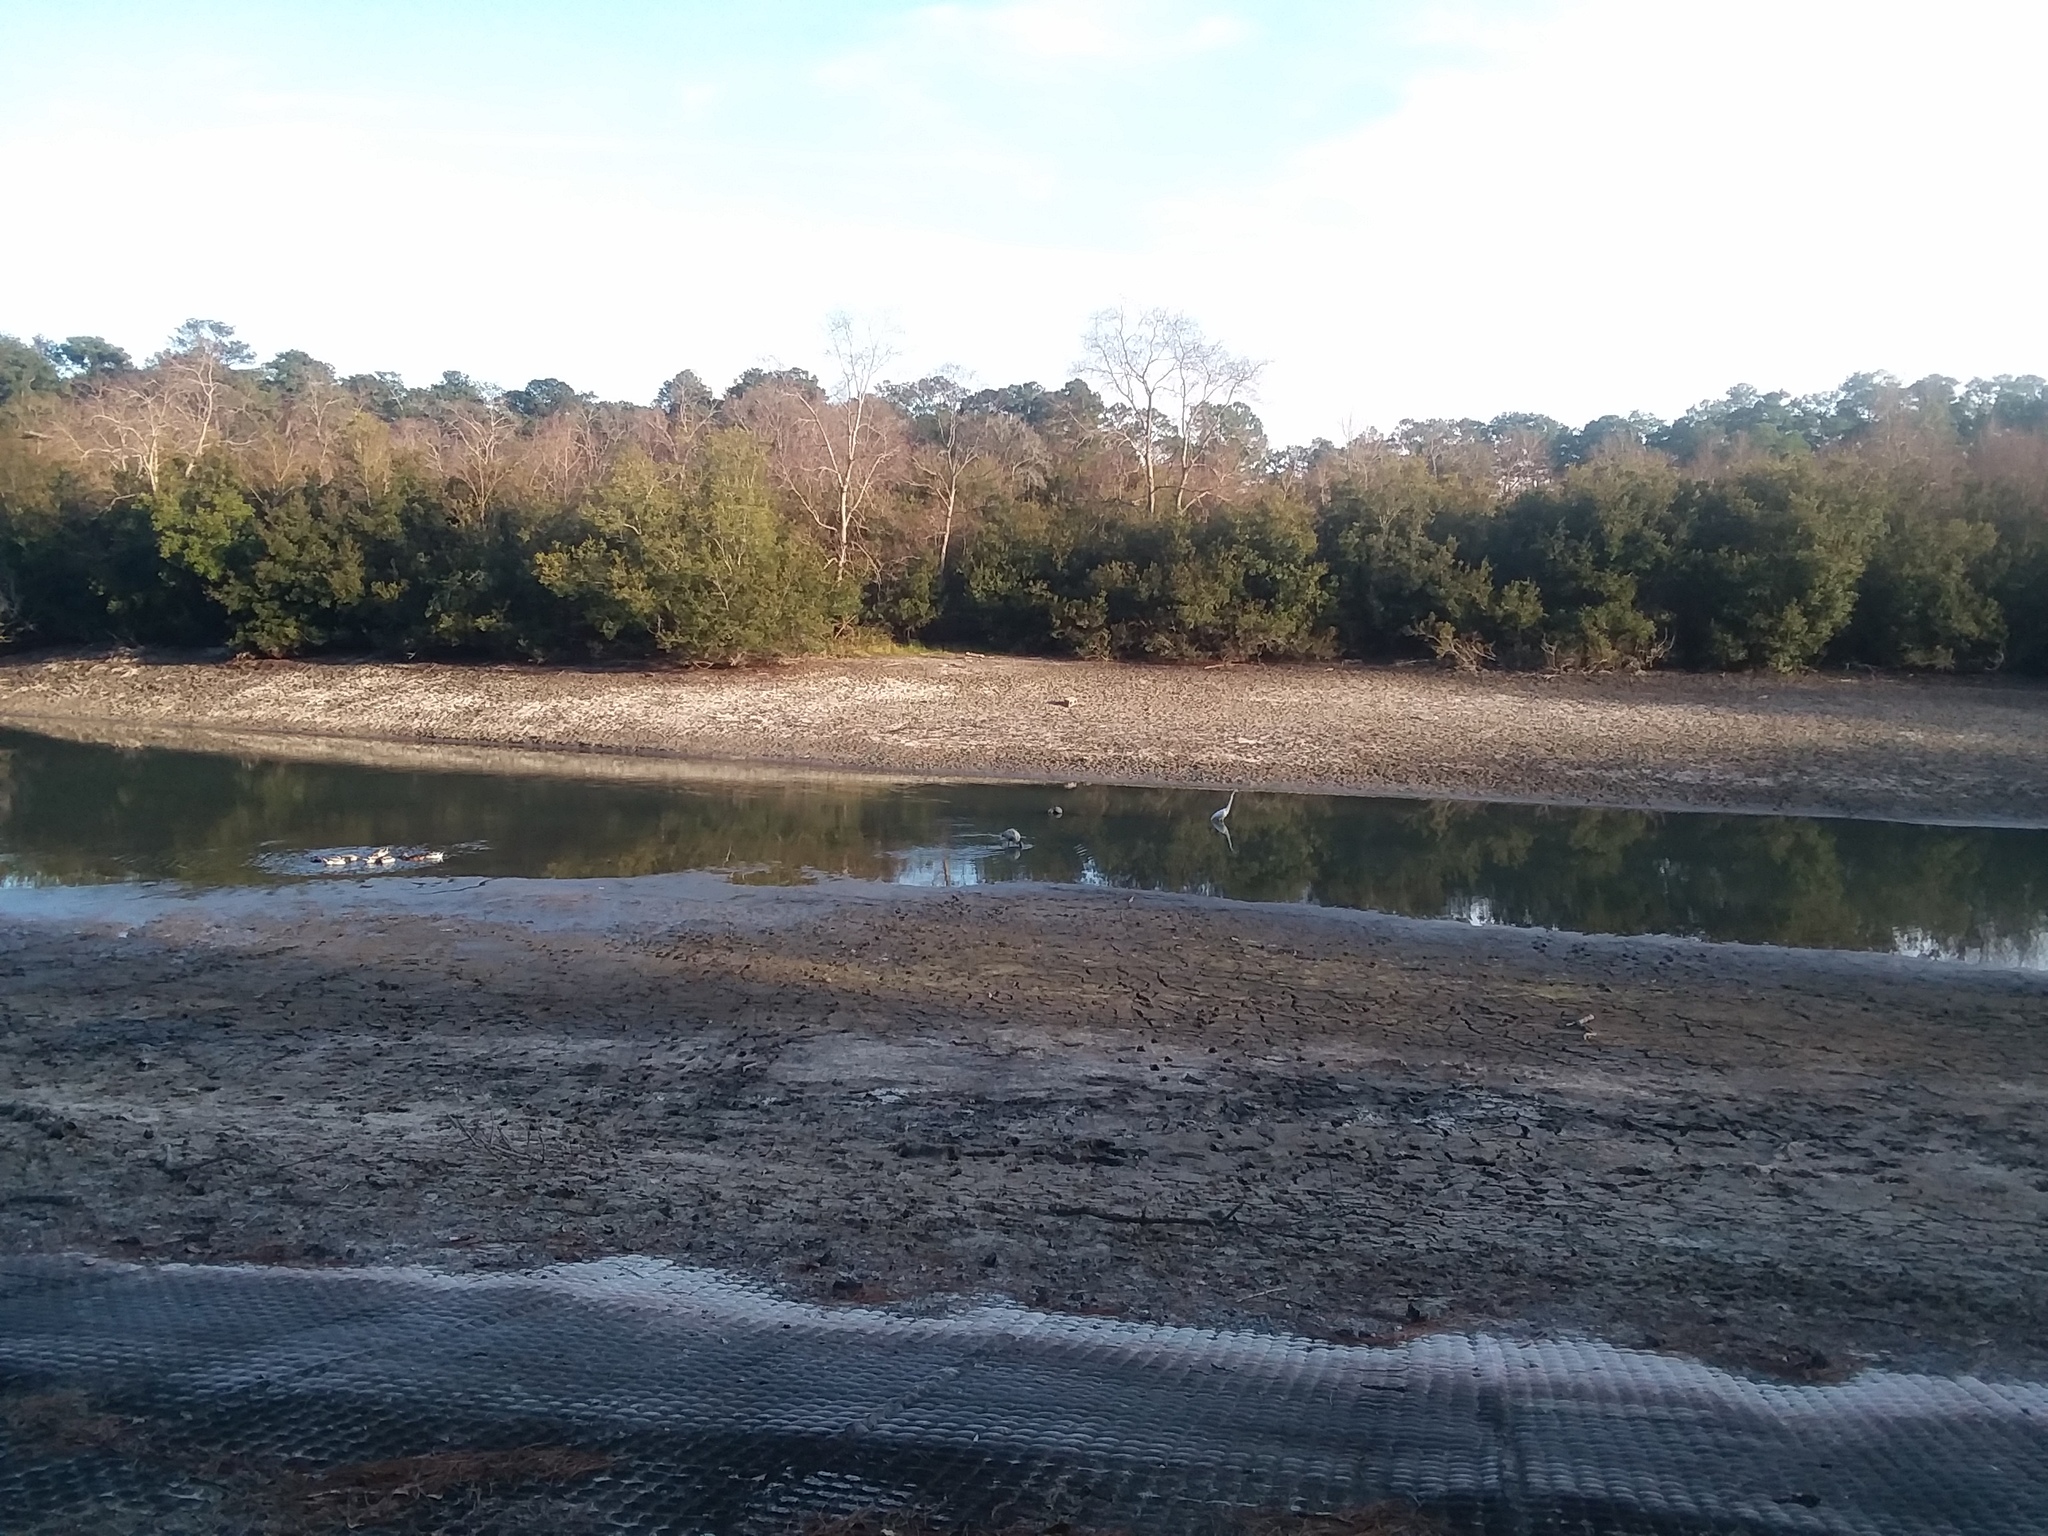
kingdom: Animalia
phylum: Chordata
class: Aves
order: Ciconiiformes
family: Ciconiidae
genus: Mycteria
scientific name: Mycteria americana
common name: Wood stork
